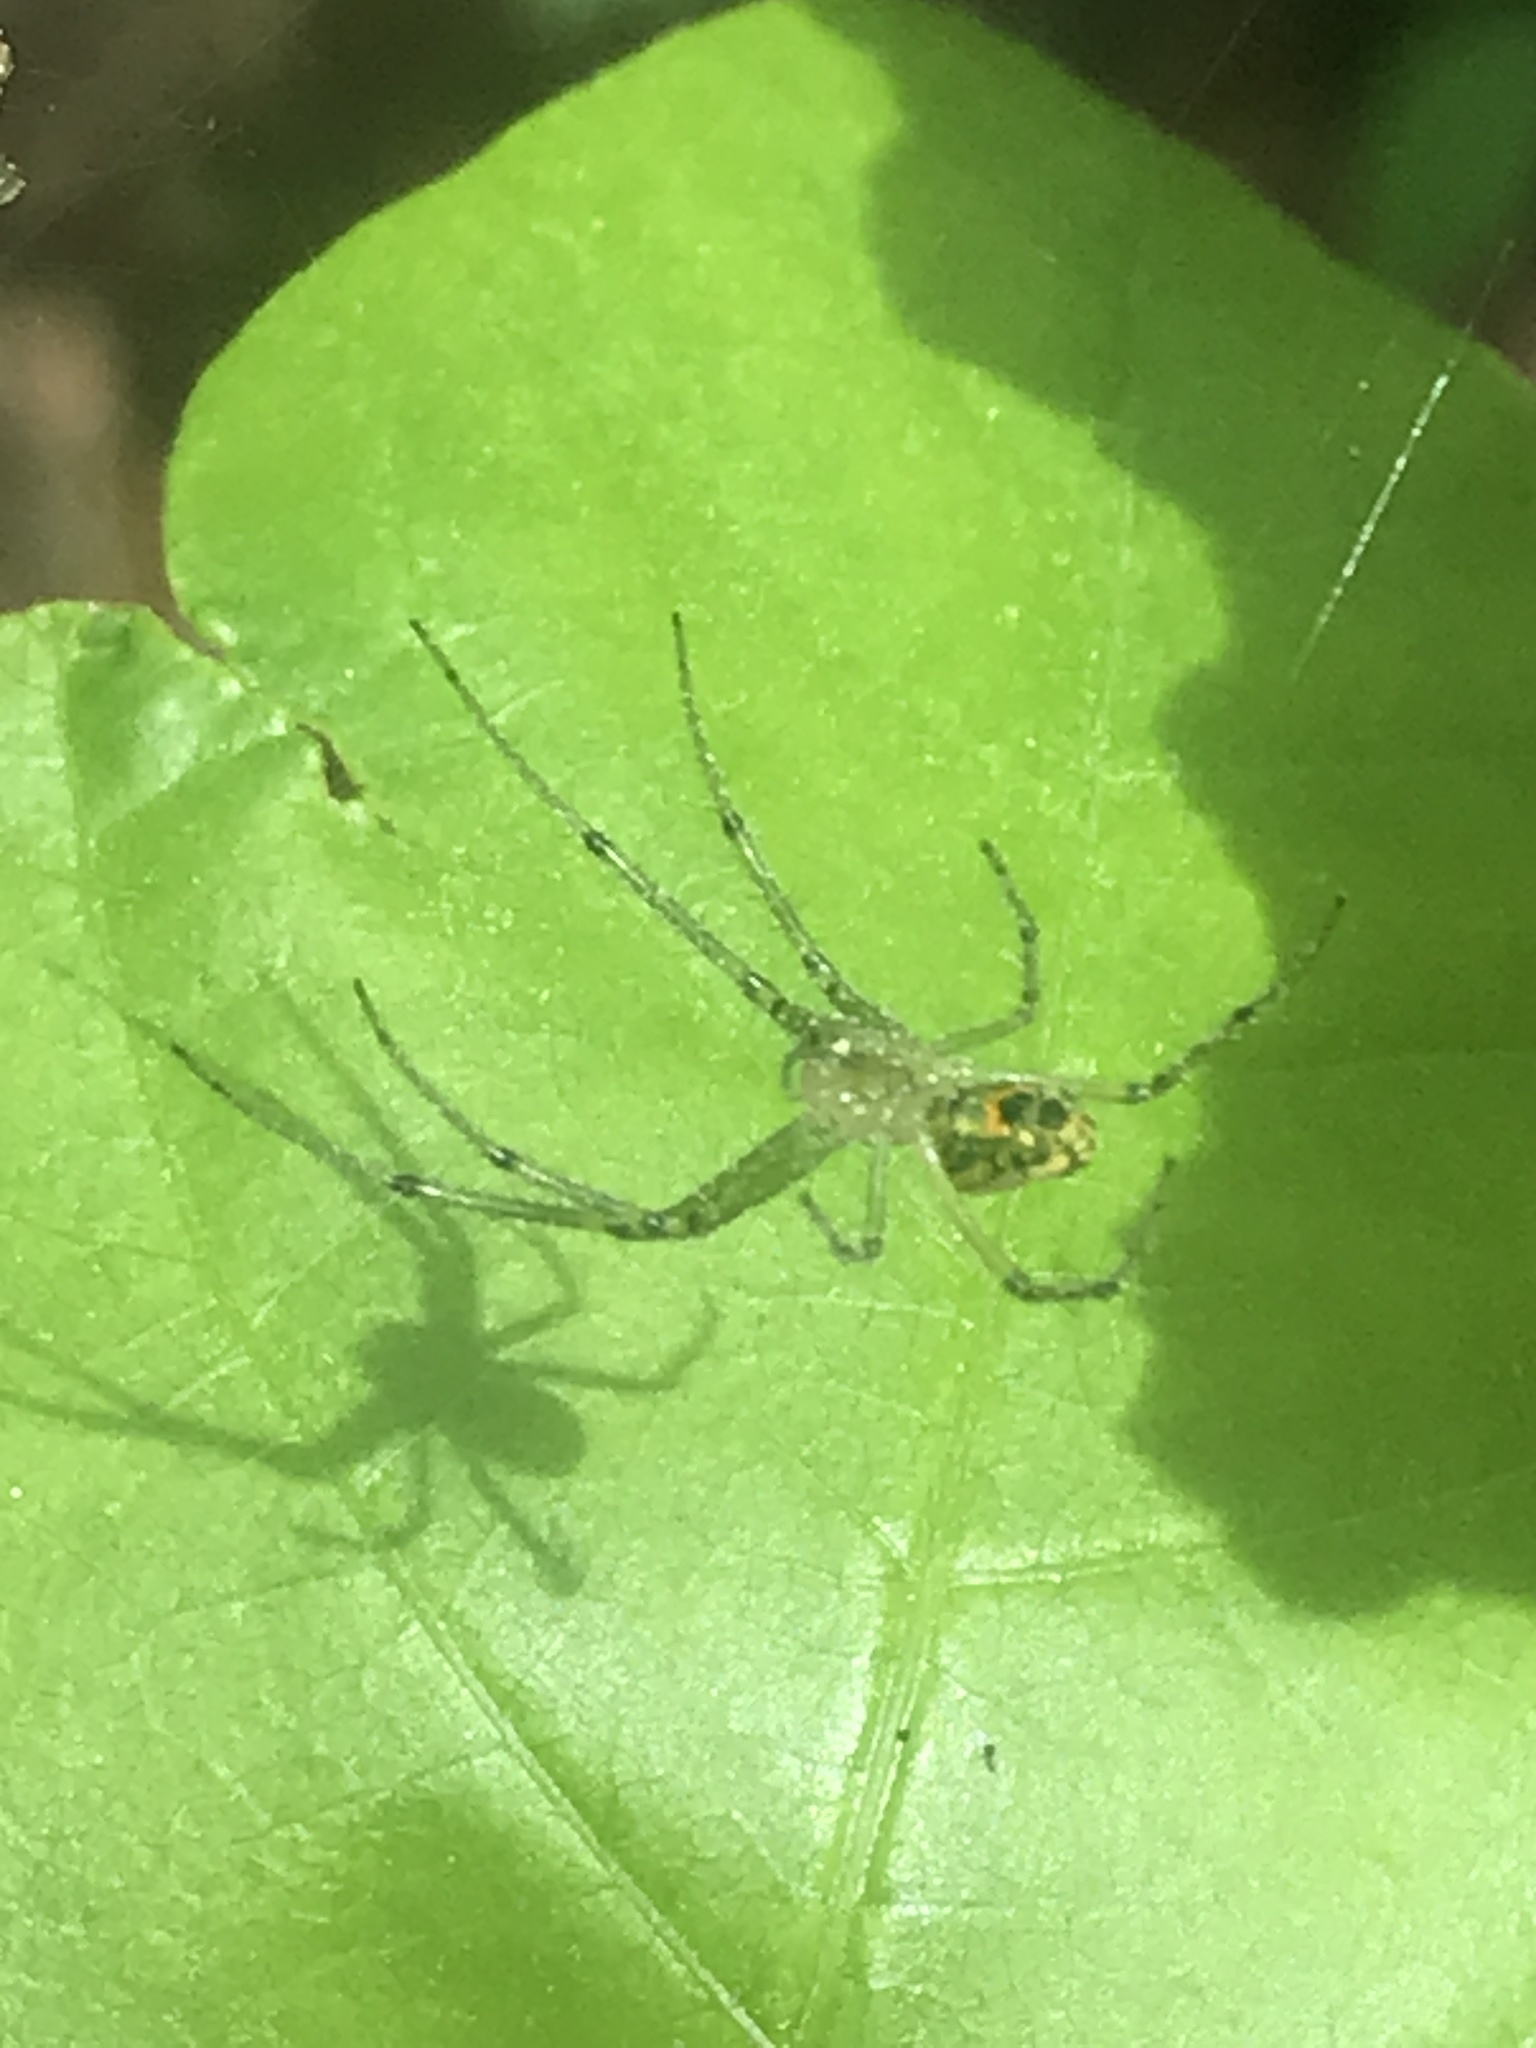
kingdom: Animalia
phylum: Arthropoda
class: Arachnida
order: Araneae
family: Tetragnathidae
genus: Leucauge
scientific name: Leucauge venusta
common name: Longjawed orb weavers
